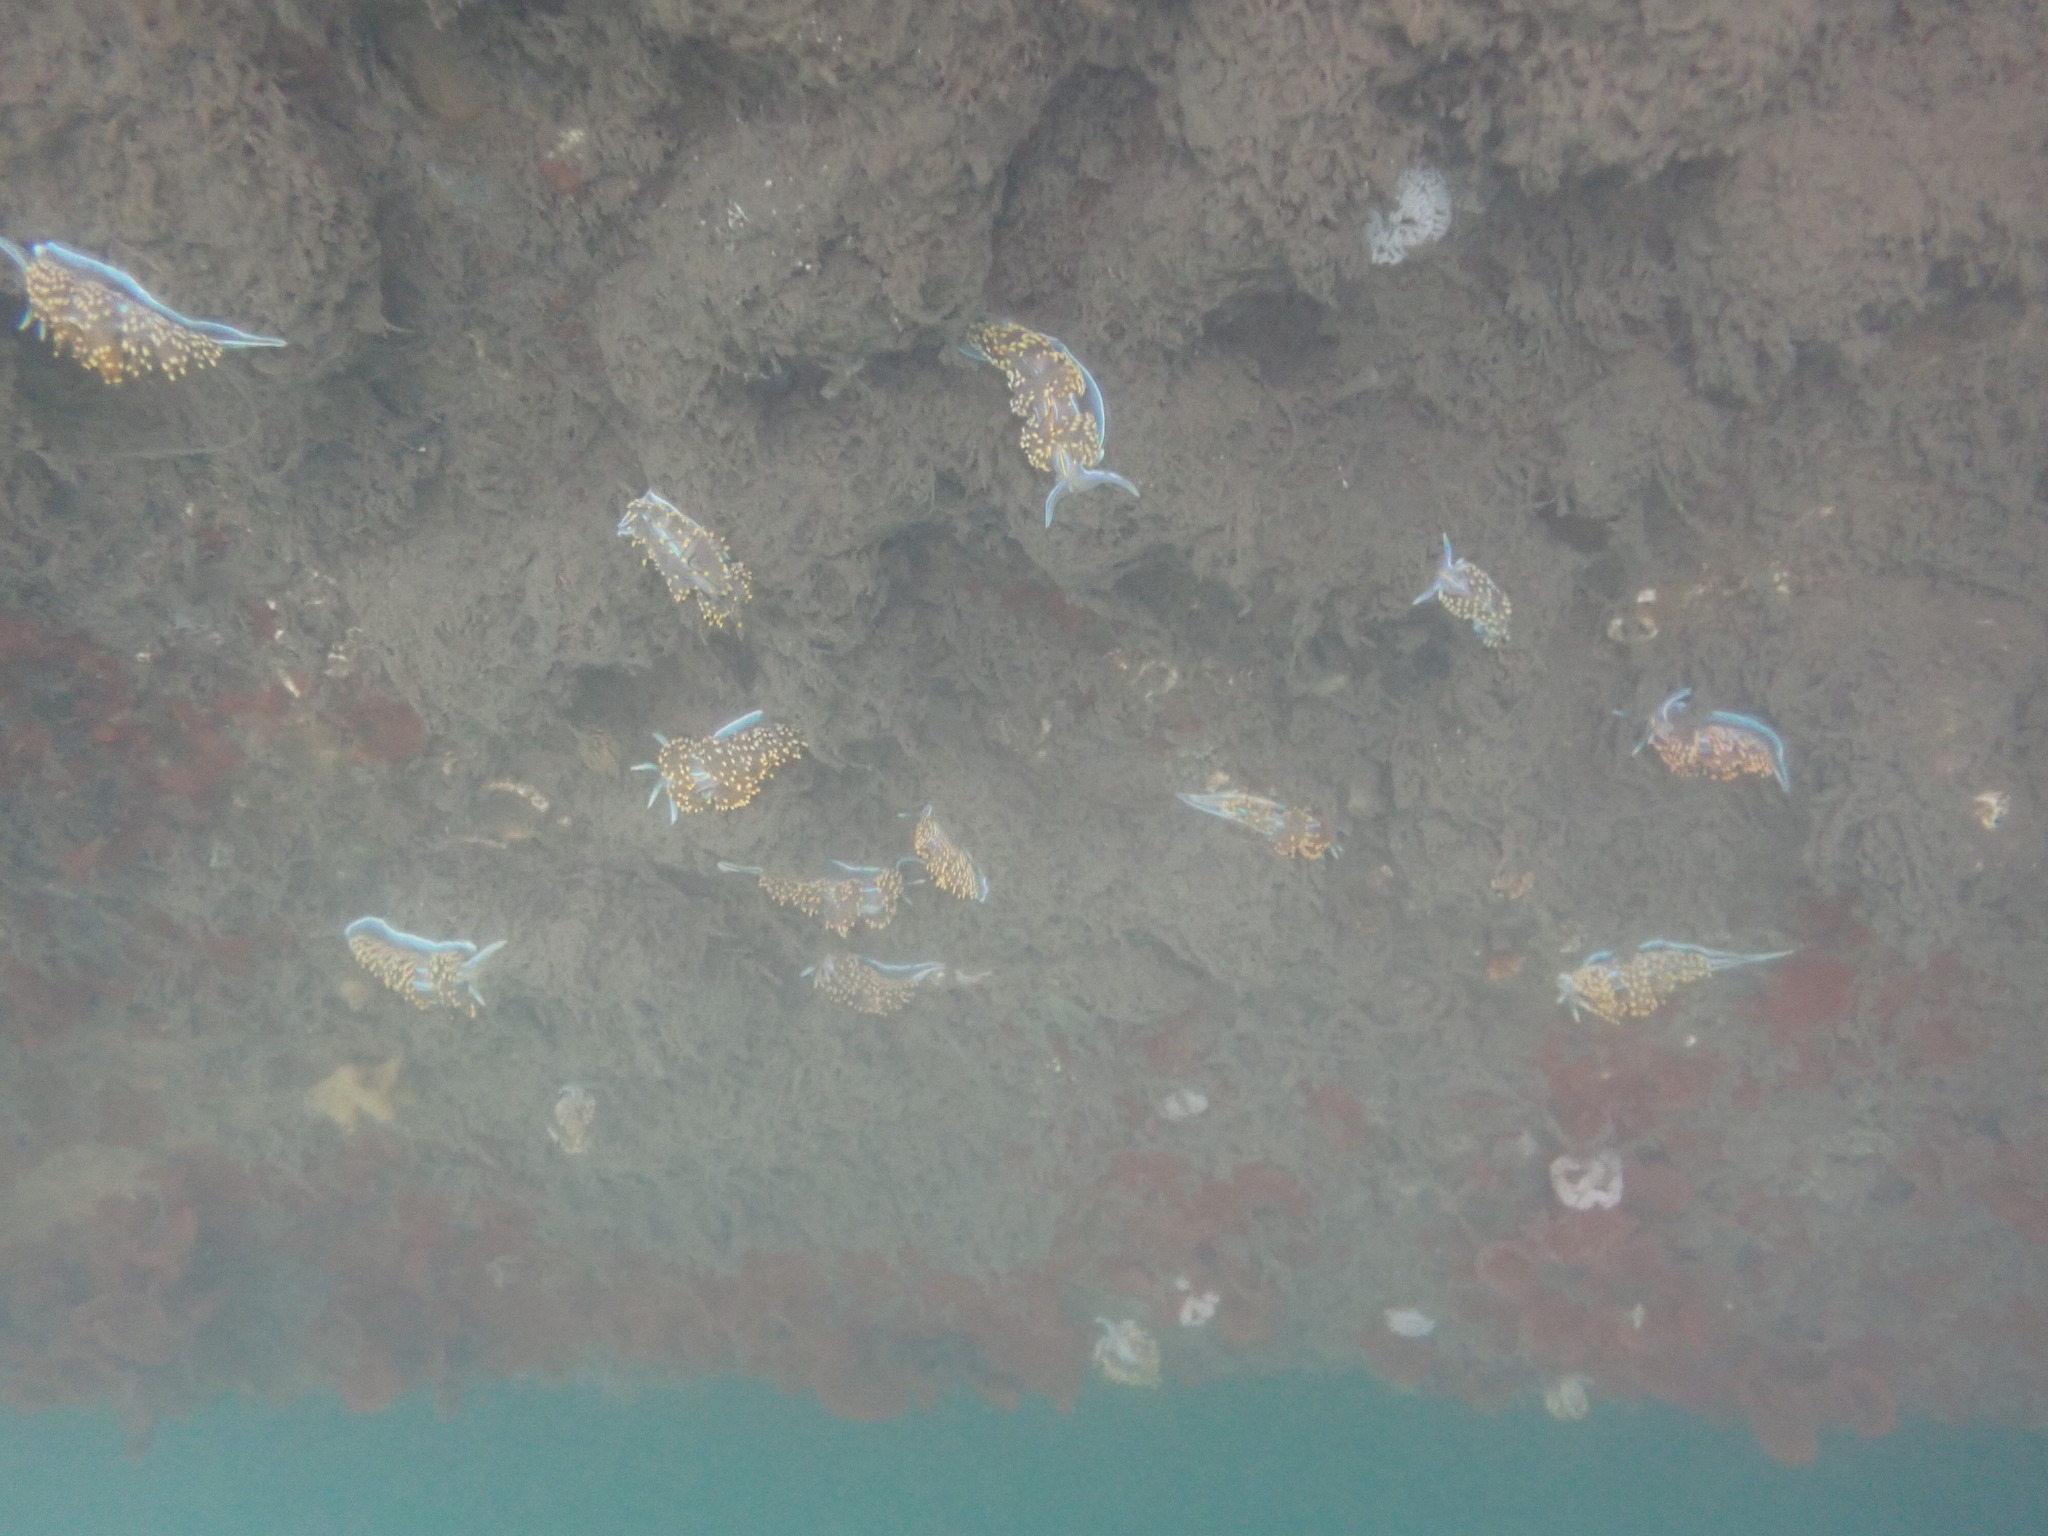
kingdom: Animalia
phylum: Mollusca
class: Gastropoda
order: Nudibranchia
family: Myrrhinidae
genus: Hermissenda
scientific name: Hermissenda opalescens
